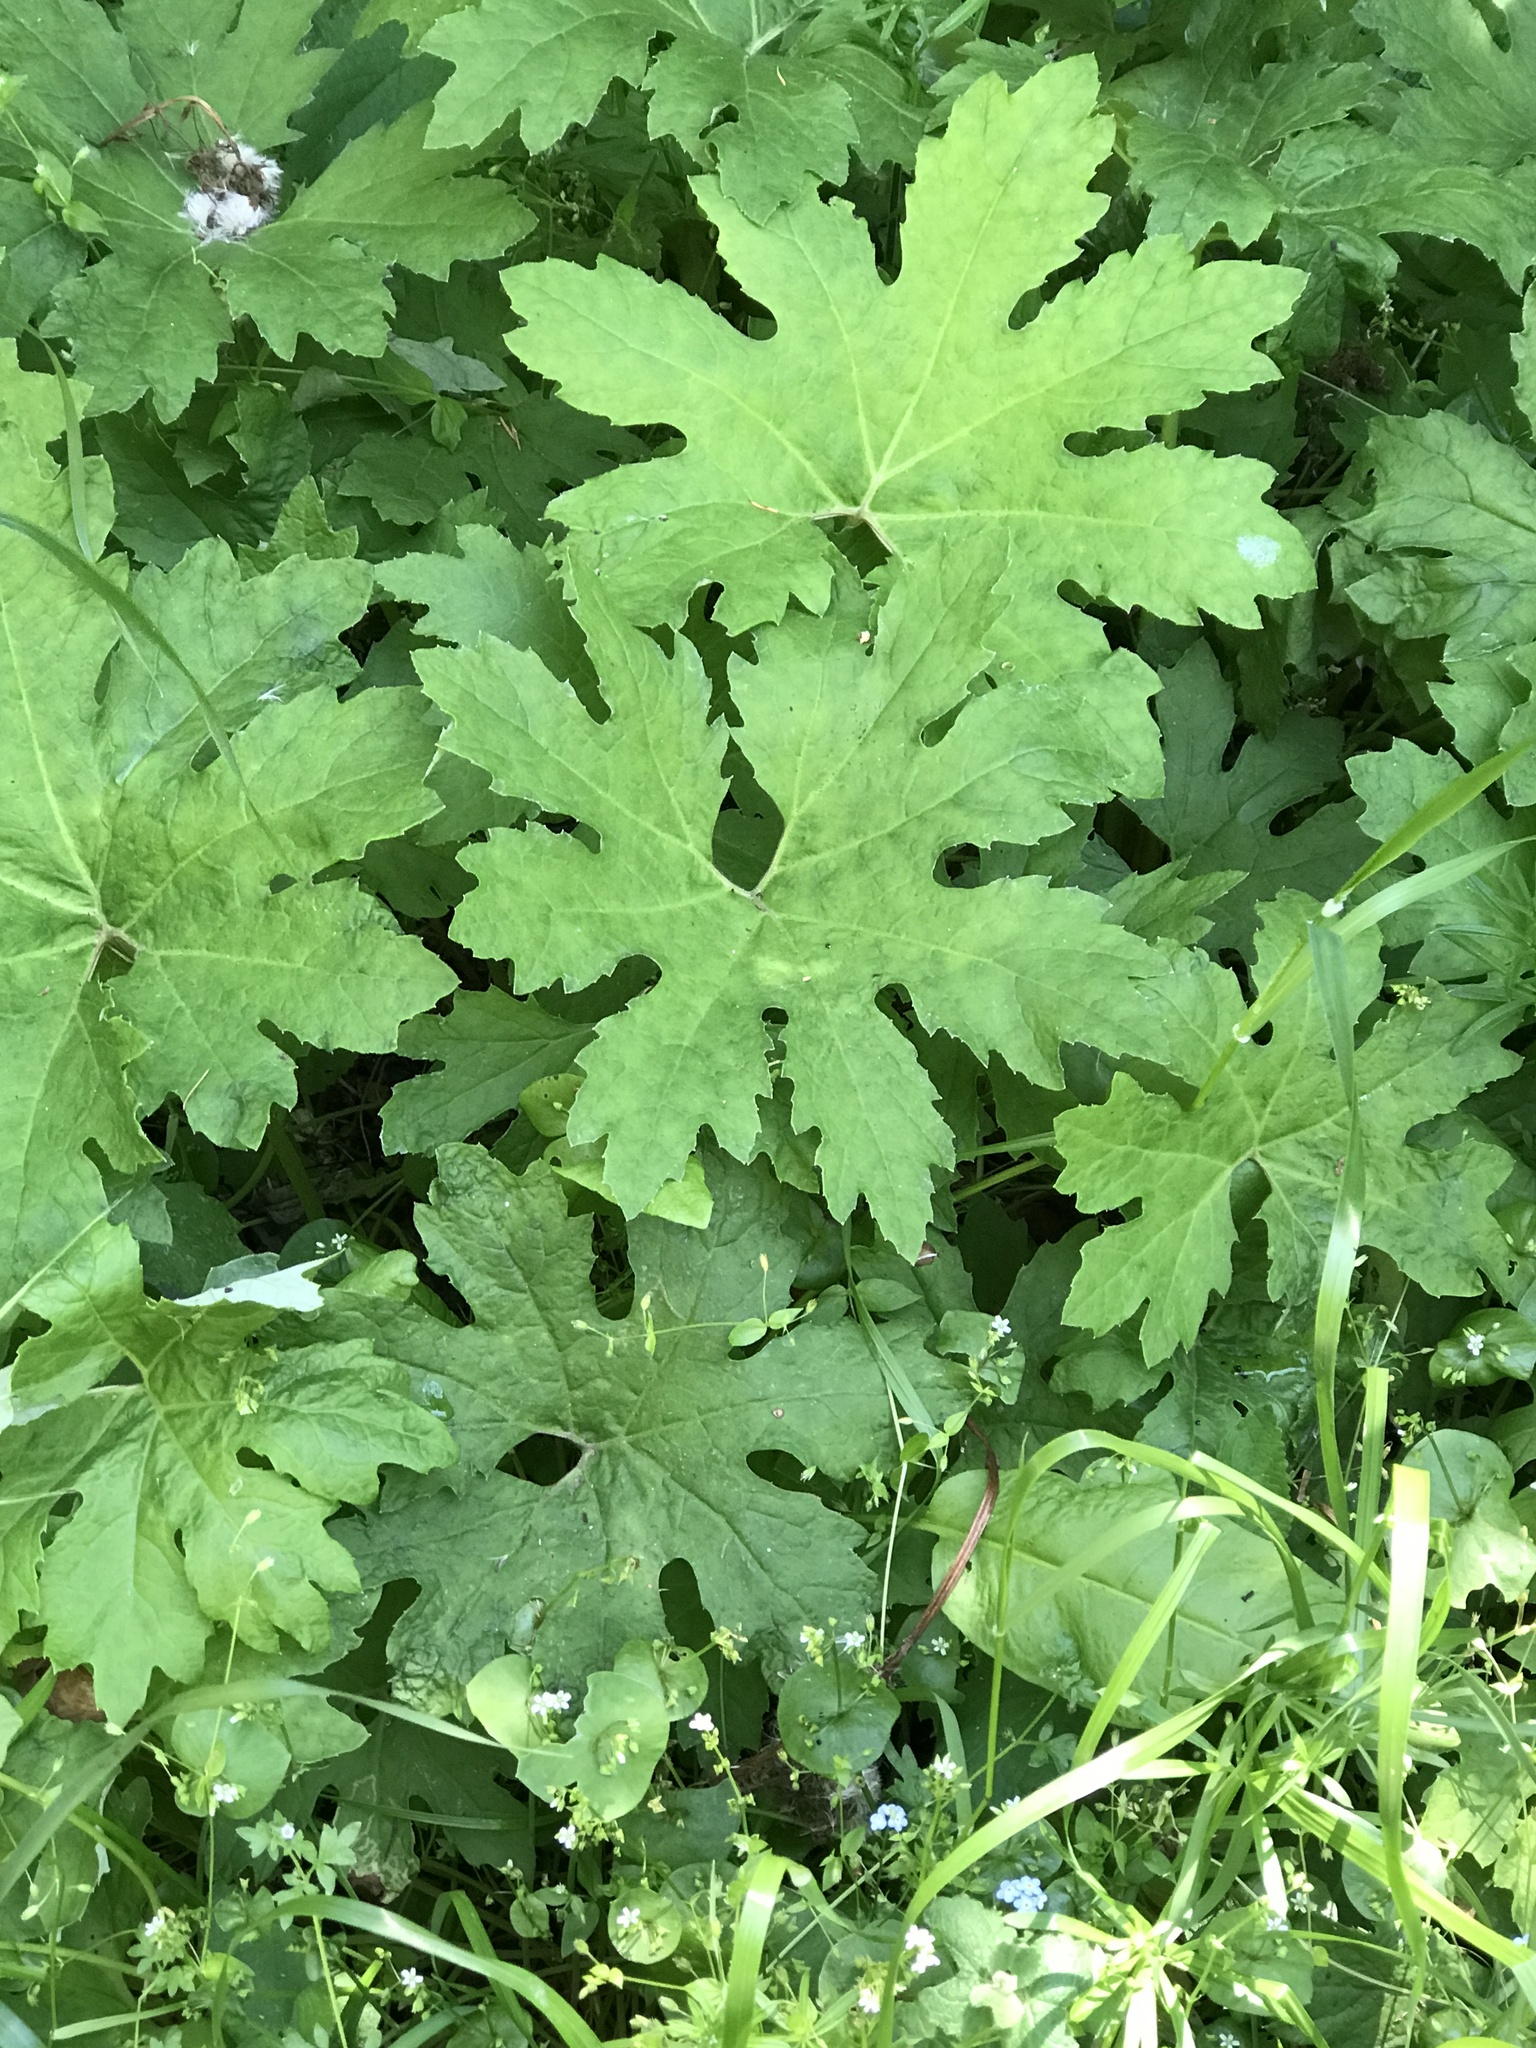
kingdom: Plantae
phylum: Tracheophyta
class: Magnoliopsida
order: Asterales
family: Asteraceae
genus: Petasites
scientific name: Petasites frigidus
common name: Arctic butterbur
